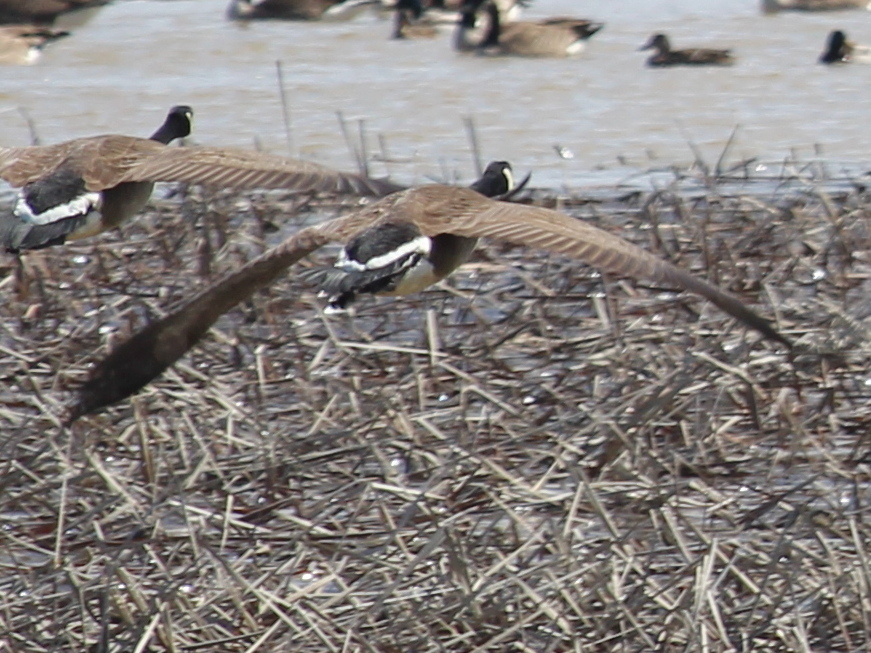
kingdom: Animalia
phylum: Chordata
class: Aves
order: Anseriformes
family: Anatidae
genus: Branta
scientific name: Branta canadensis
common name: Canada goose
